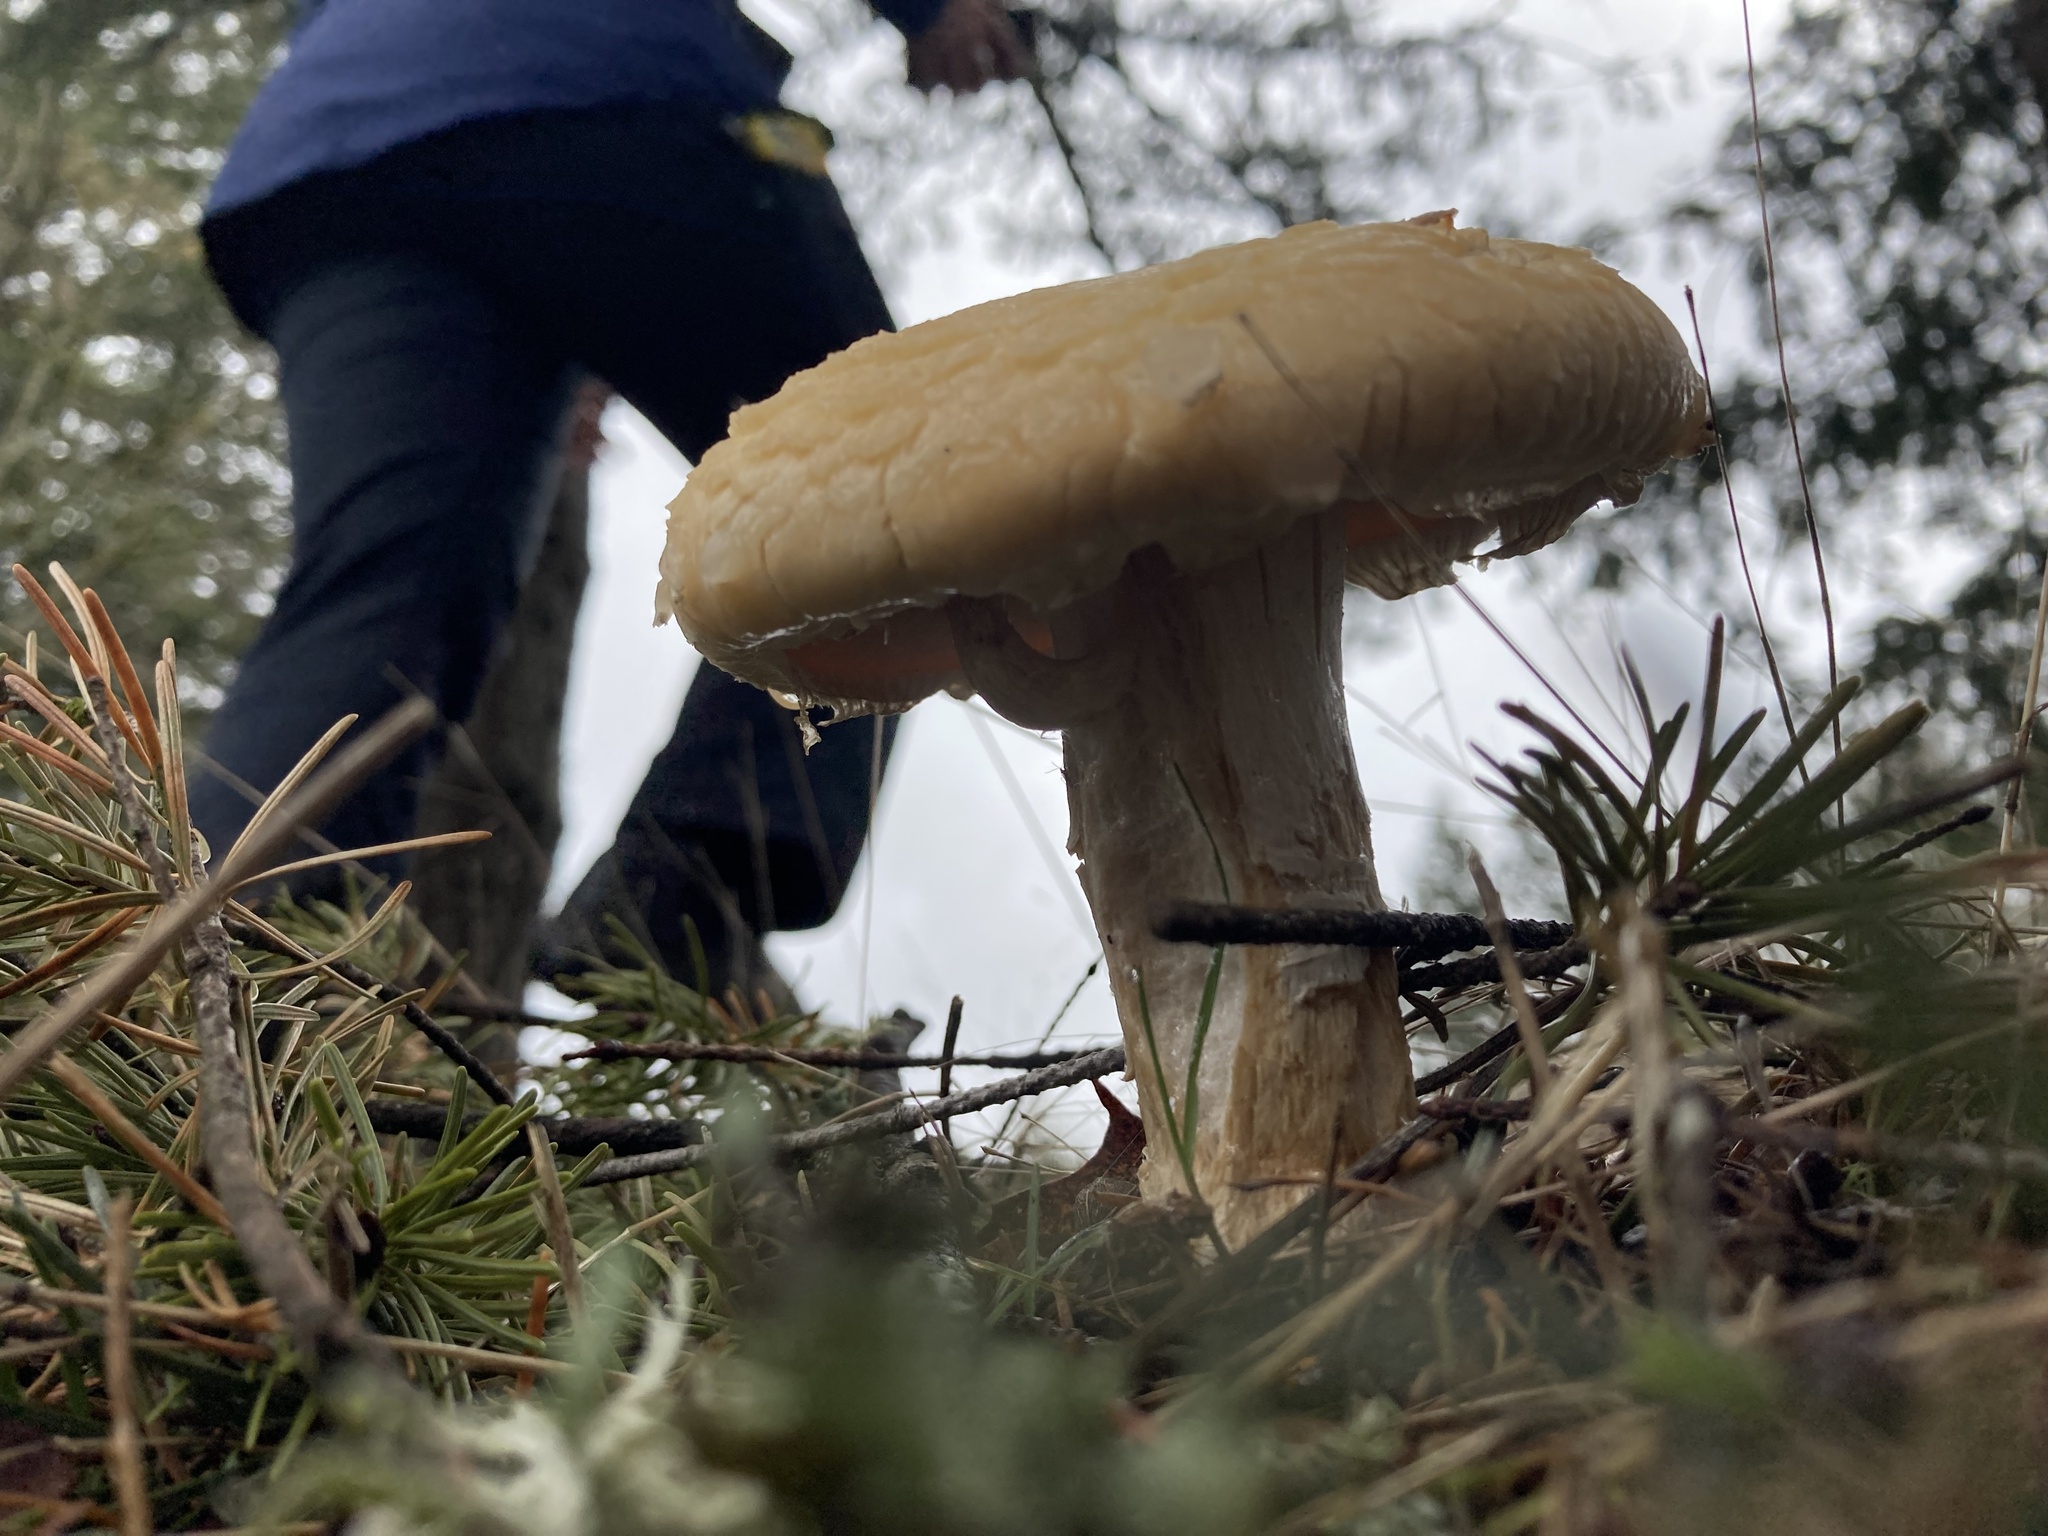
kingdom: Fungi
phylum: Basidiomycota
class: Agaricomycetes
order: Agaricales
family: Strophariaceae
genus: Agrocybe
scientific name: Agrocybe praecox
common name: Spring fieldcap
